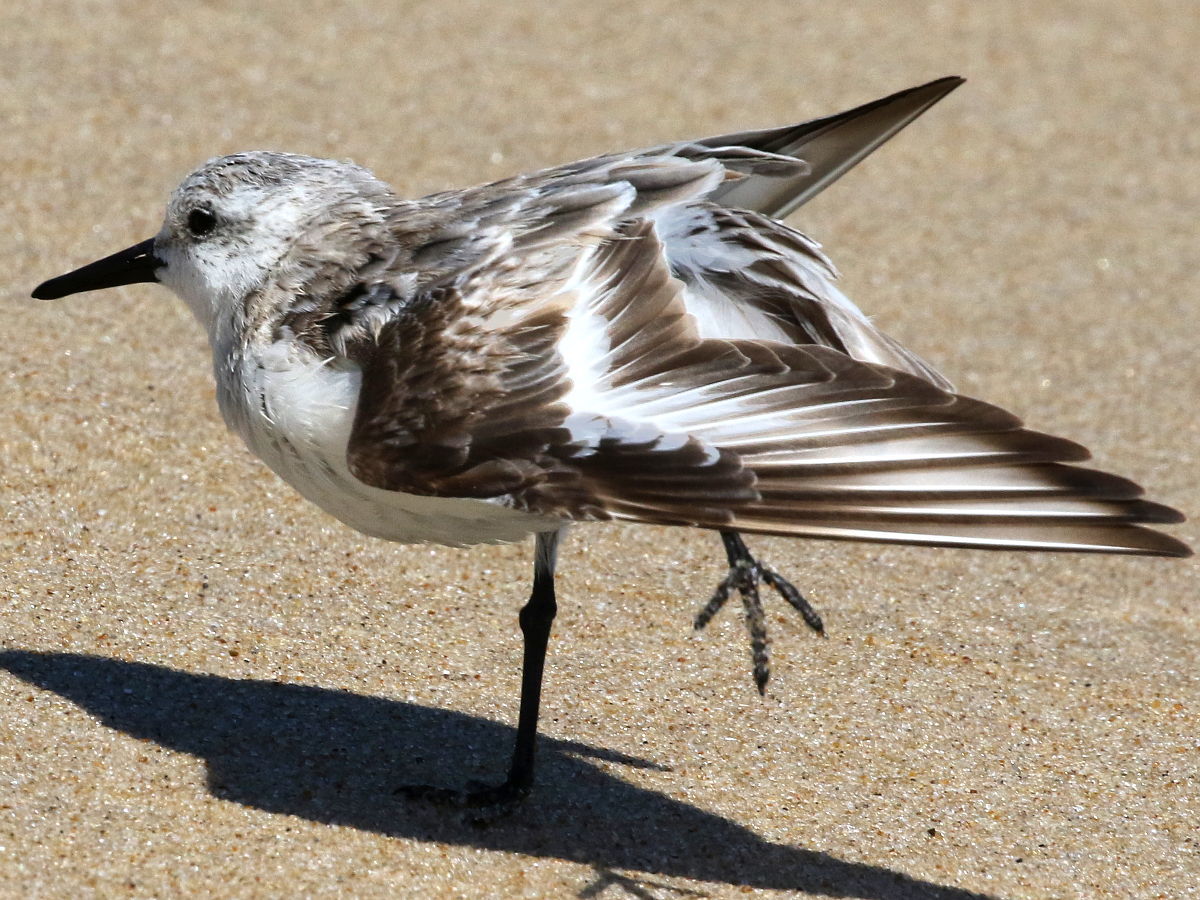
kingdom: Animalia
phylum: Chordata
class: Aves
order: Charadriiformes
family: Scolopacidae
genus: Calidris
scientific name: Calidris alba
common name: Sanderling
